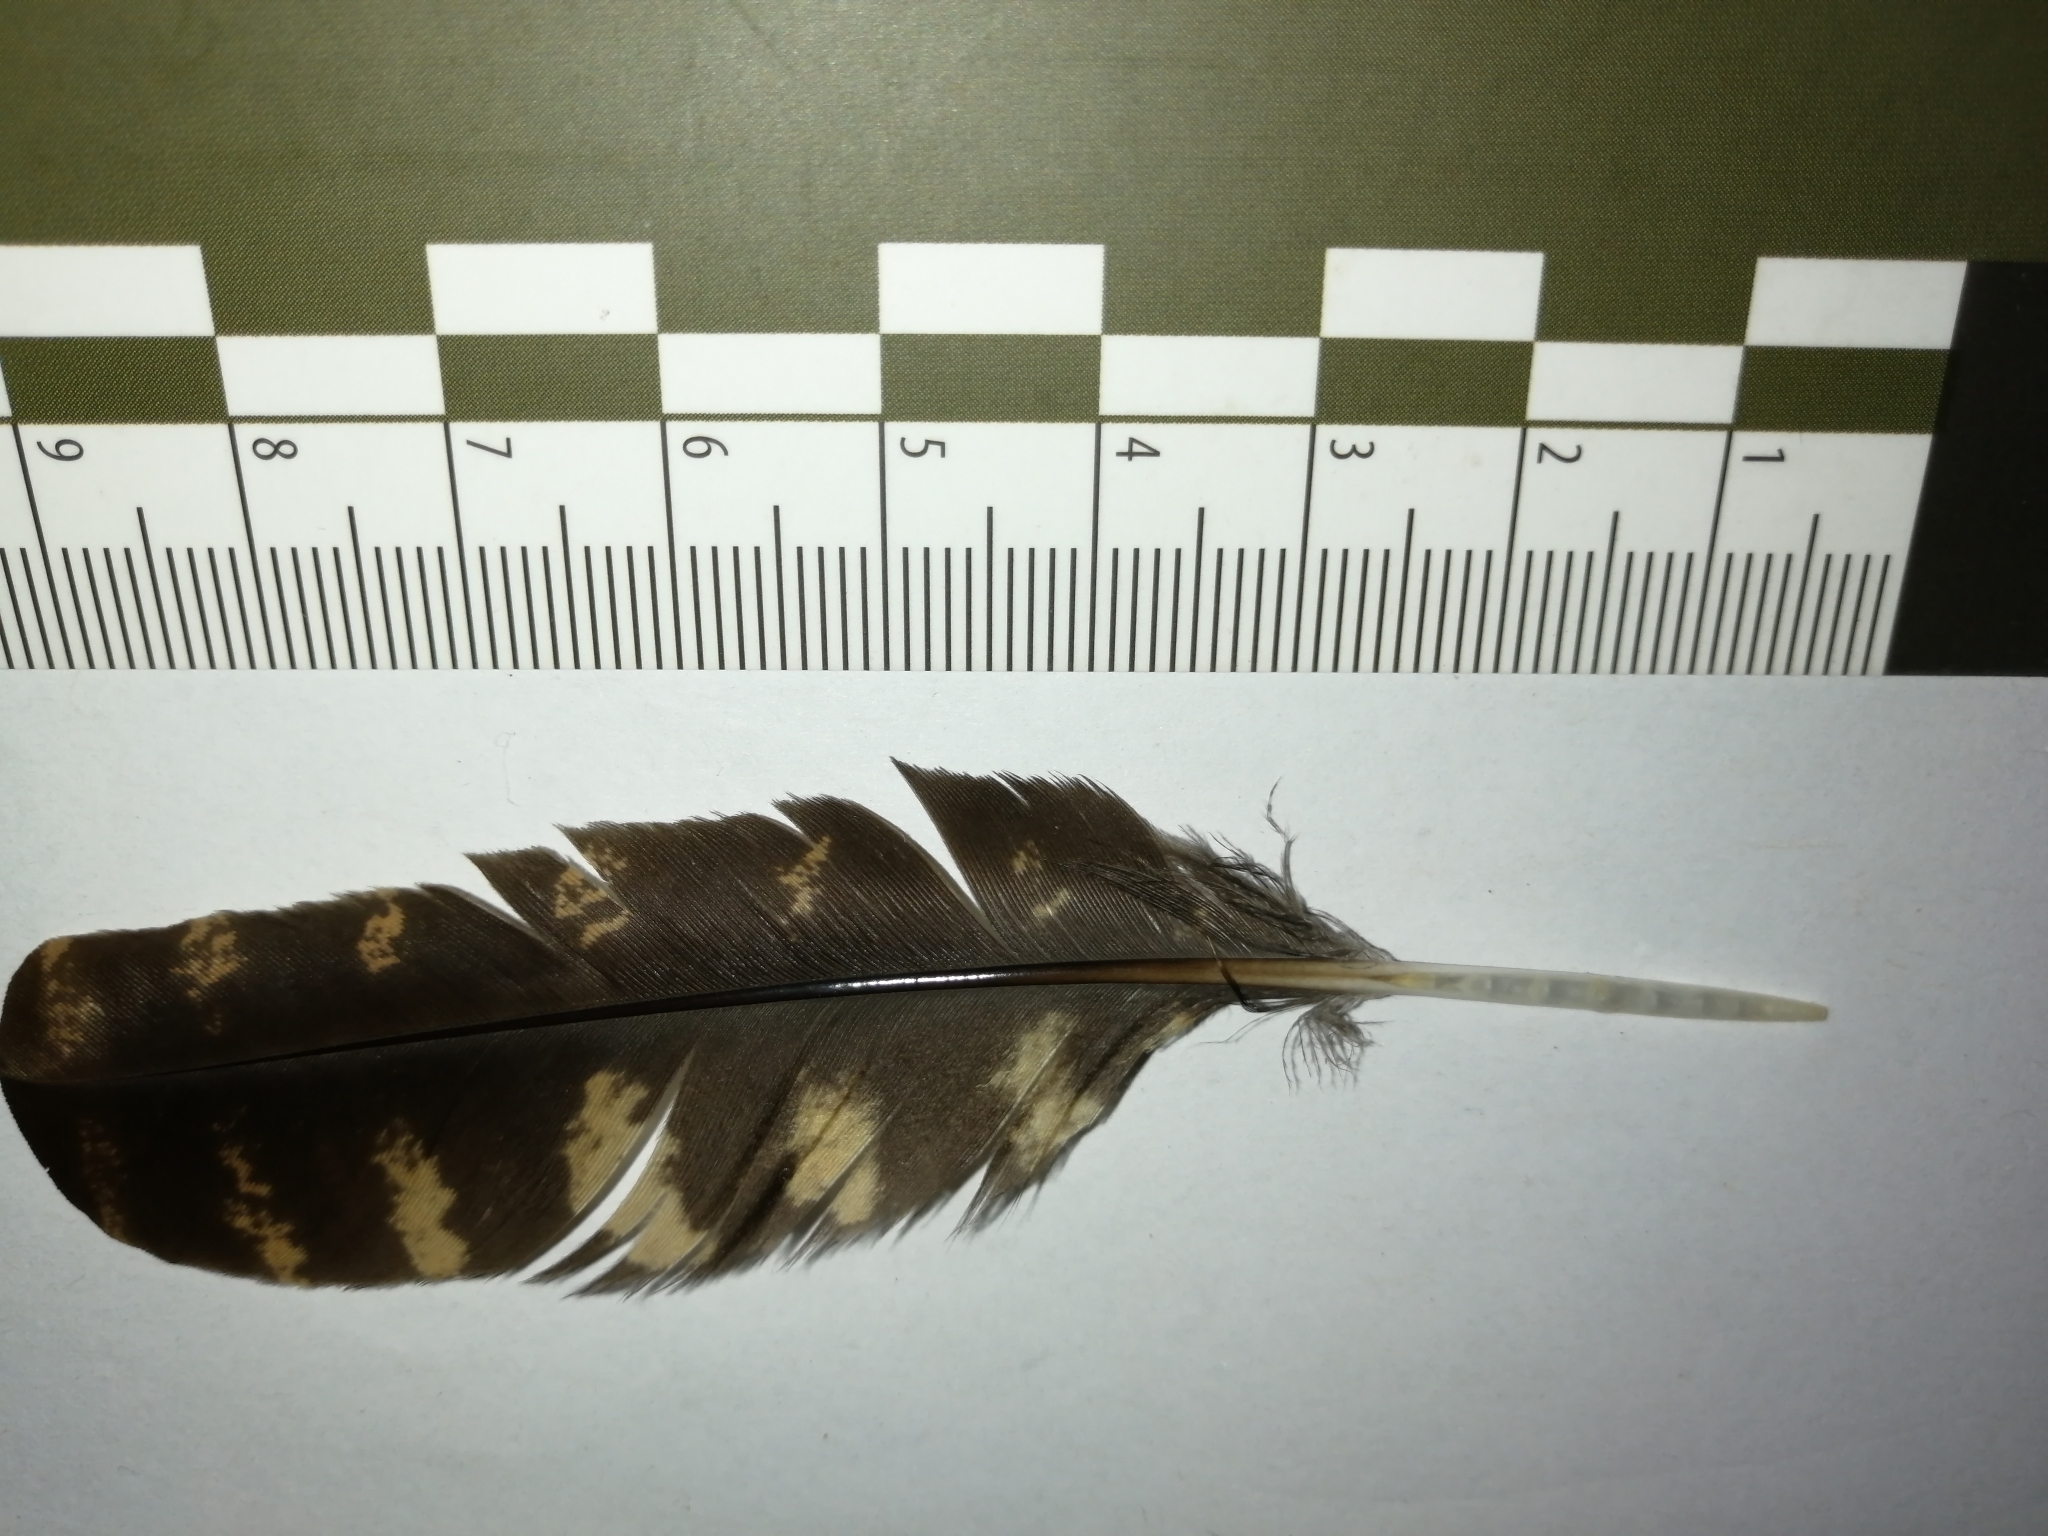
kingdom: Animalia
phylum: Chordata
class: Aves
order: Caprimulgiformes
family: Caprimulgidae
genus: Nyctidromus
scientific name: Nyctidromus albicollis
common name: Pauraque
